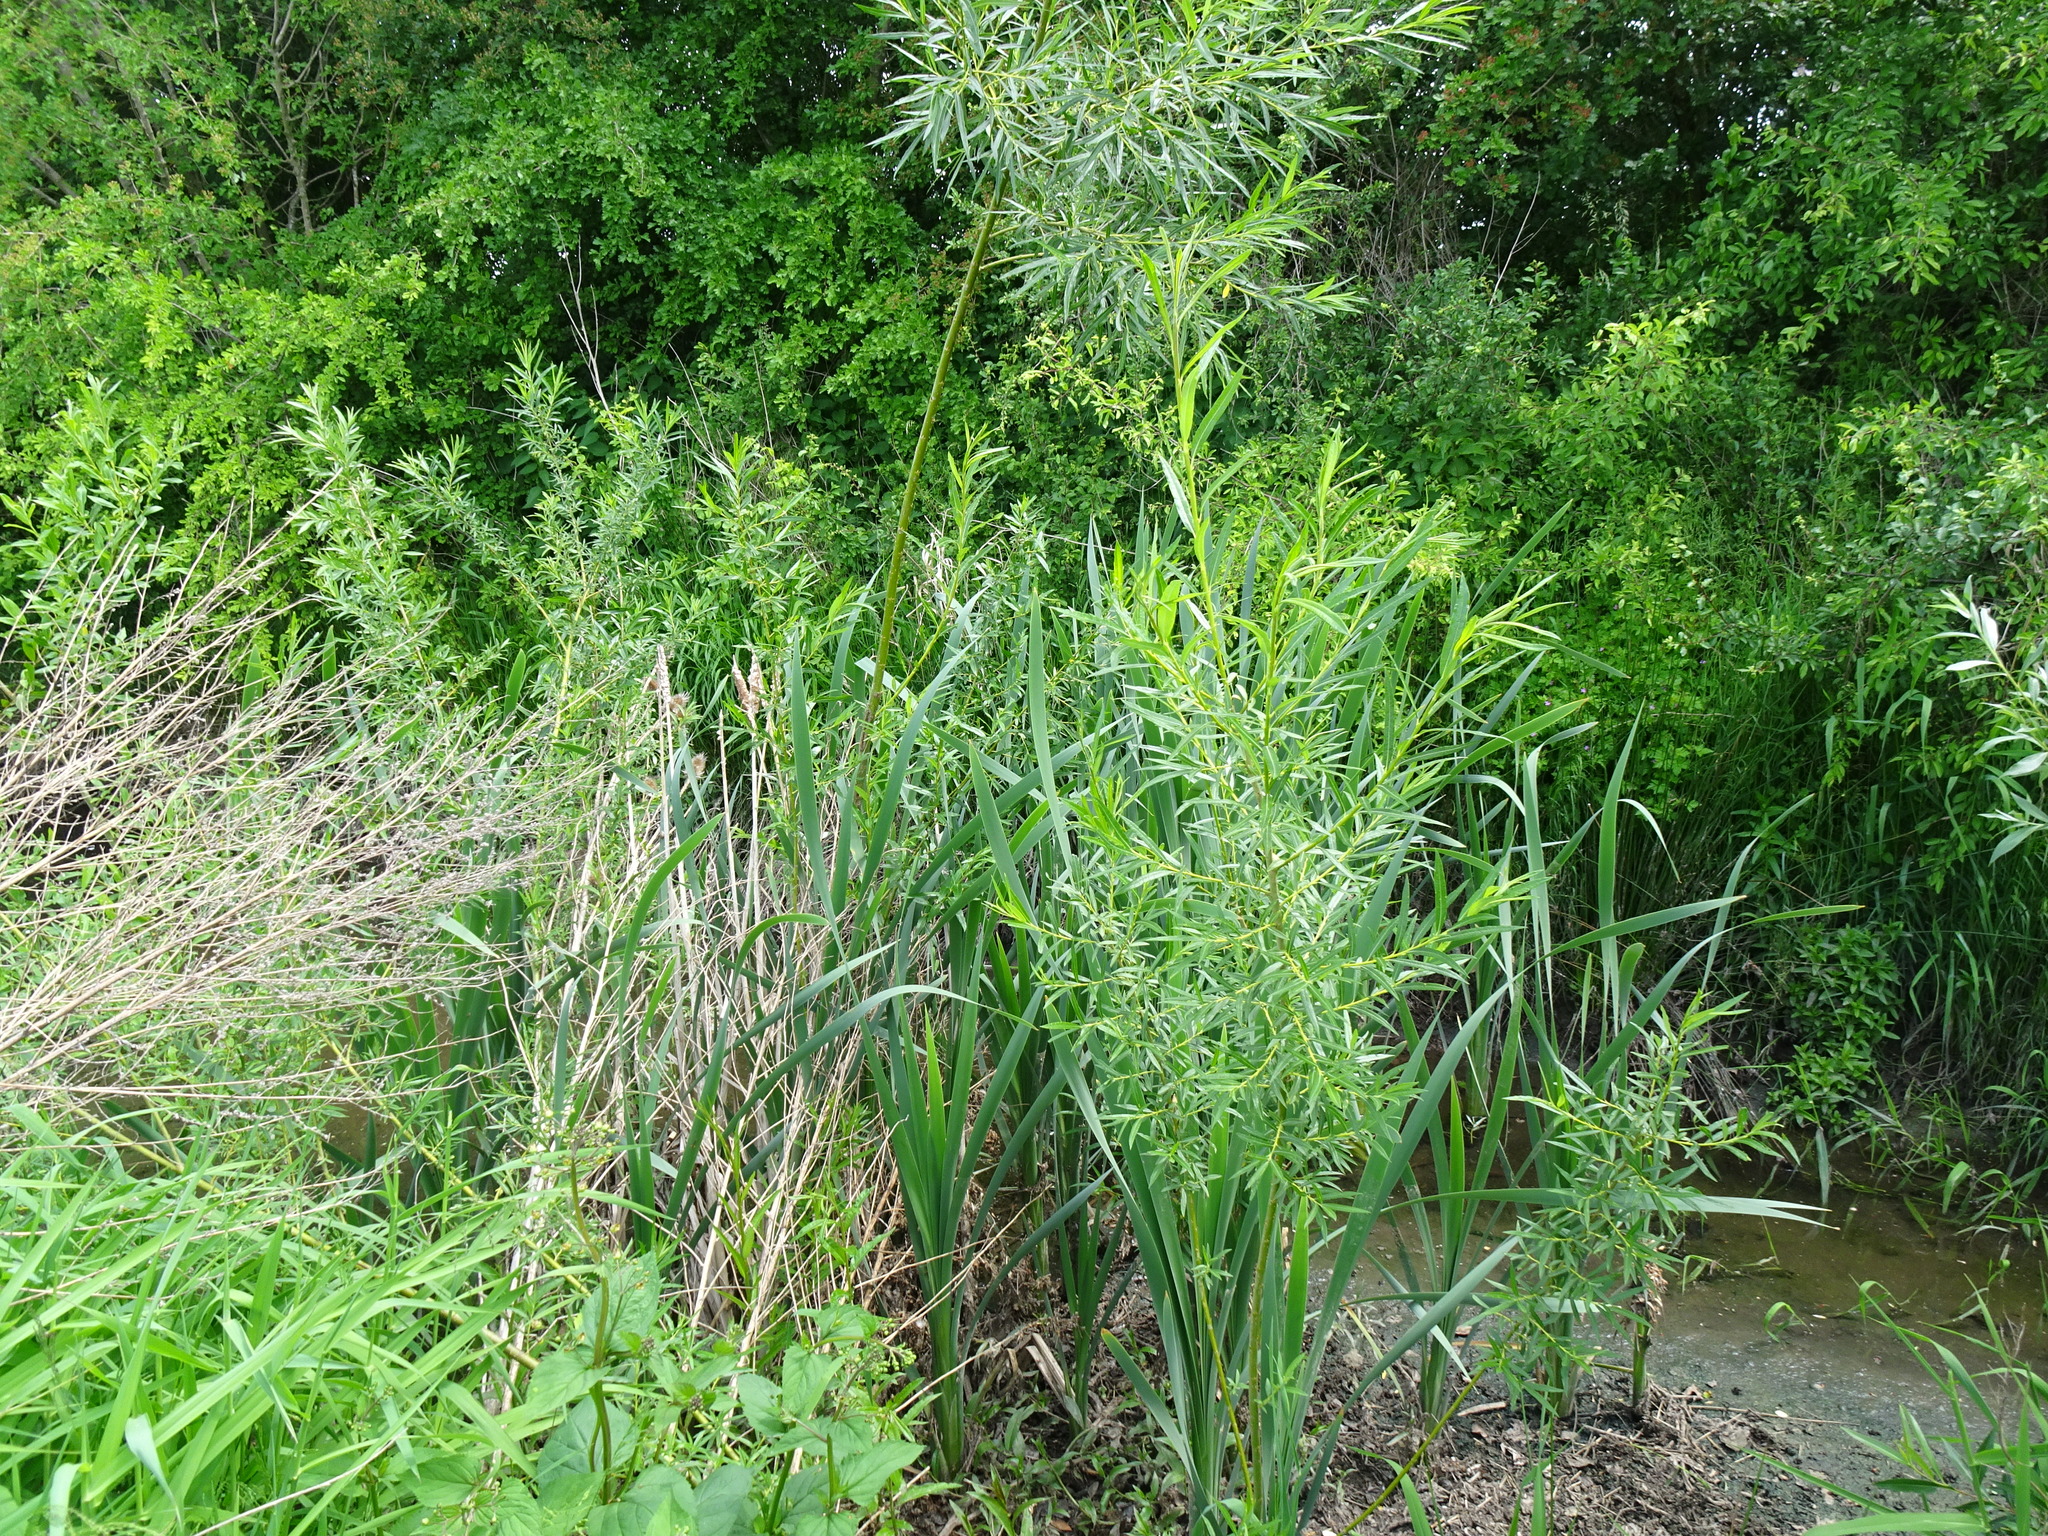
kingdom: Plantae
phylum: Tracheophyta
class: Liliopsida
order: Poales
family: Typhaceae
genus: Typha
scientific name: Typha latifolia
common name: Broadleaf cattail
